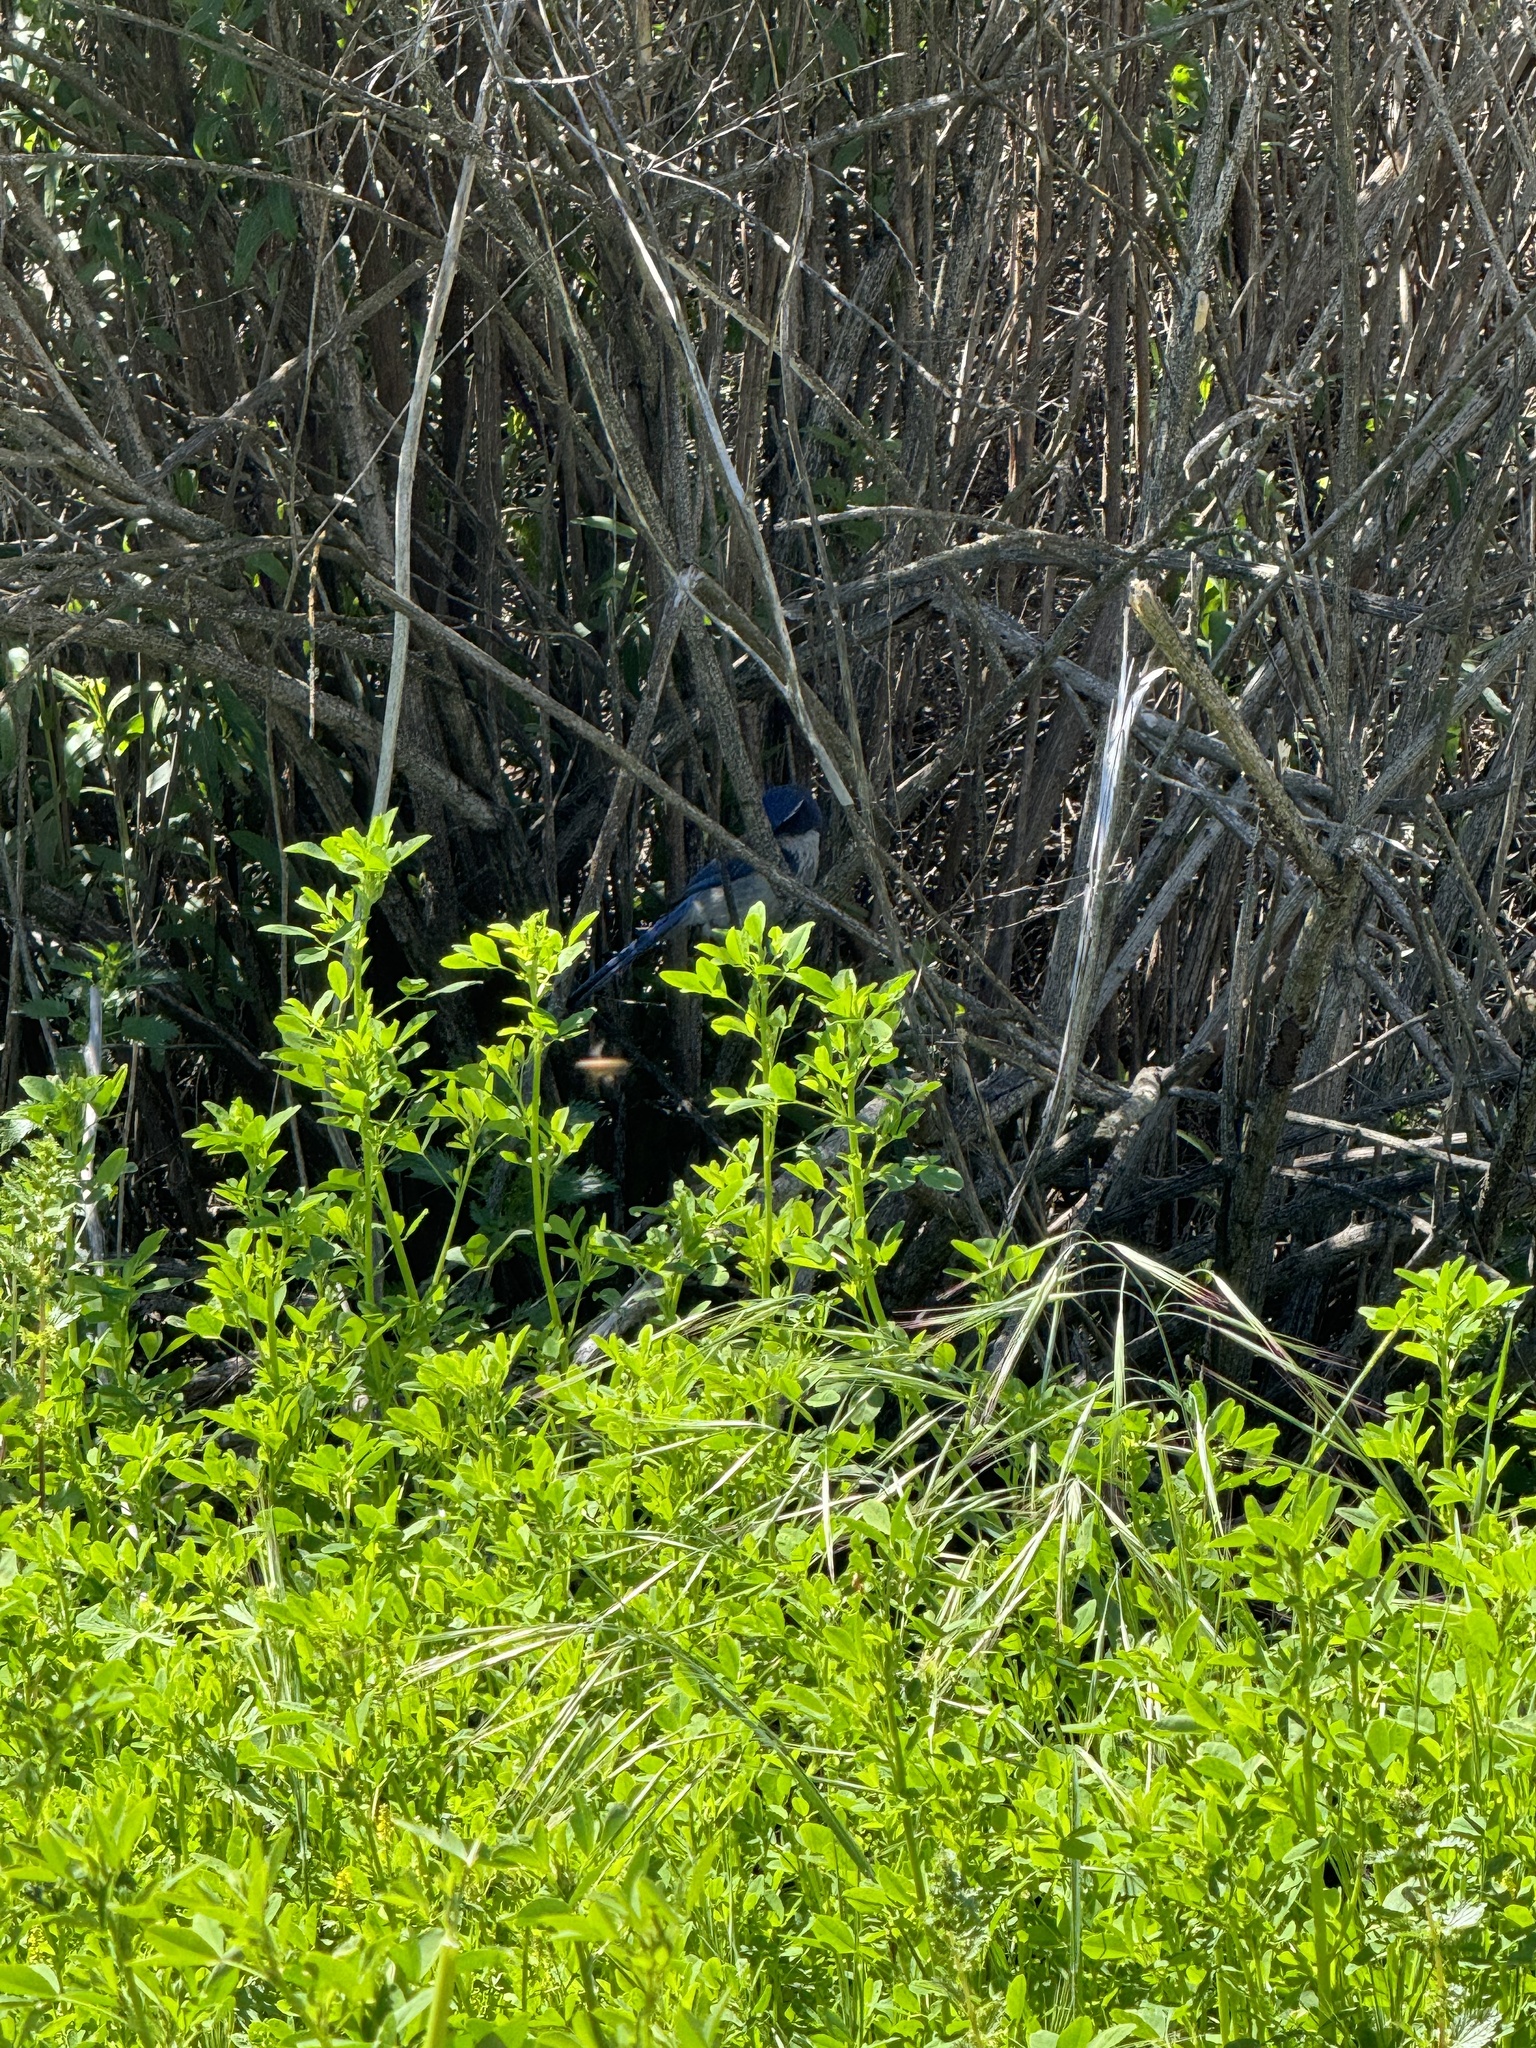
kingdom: Animalia
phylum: Chordata
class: Aves
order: Passeriformes
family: Corvidae
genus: Aphelocoma
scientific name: Aphelocoma californica
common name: California scrub-jay
